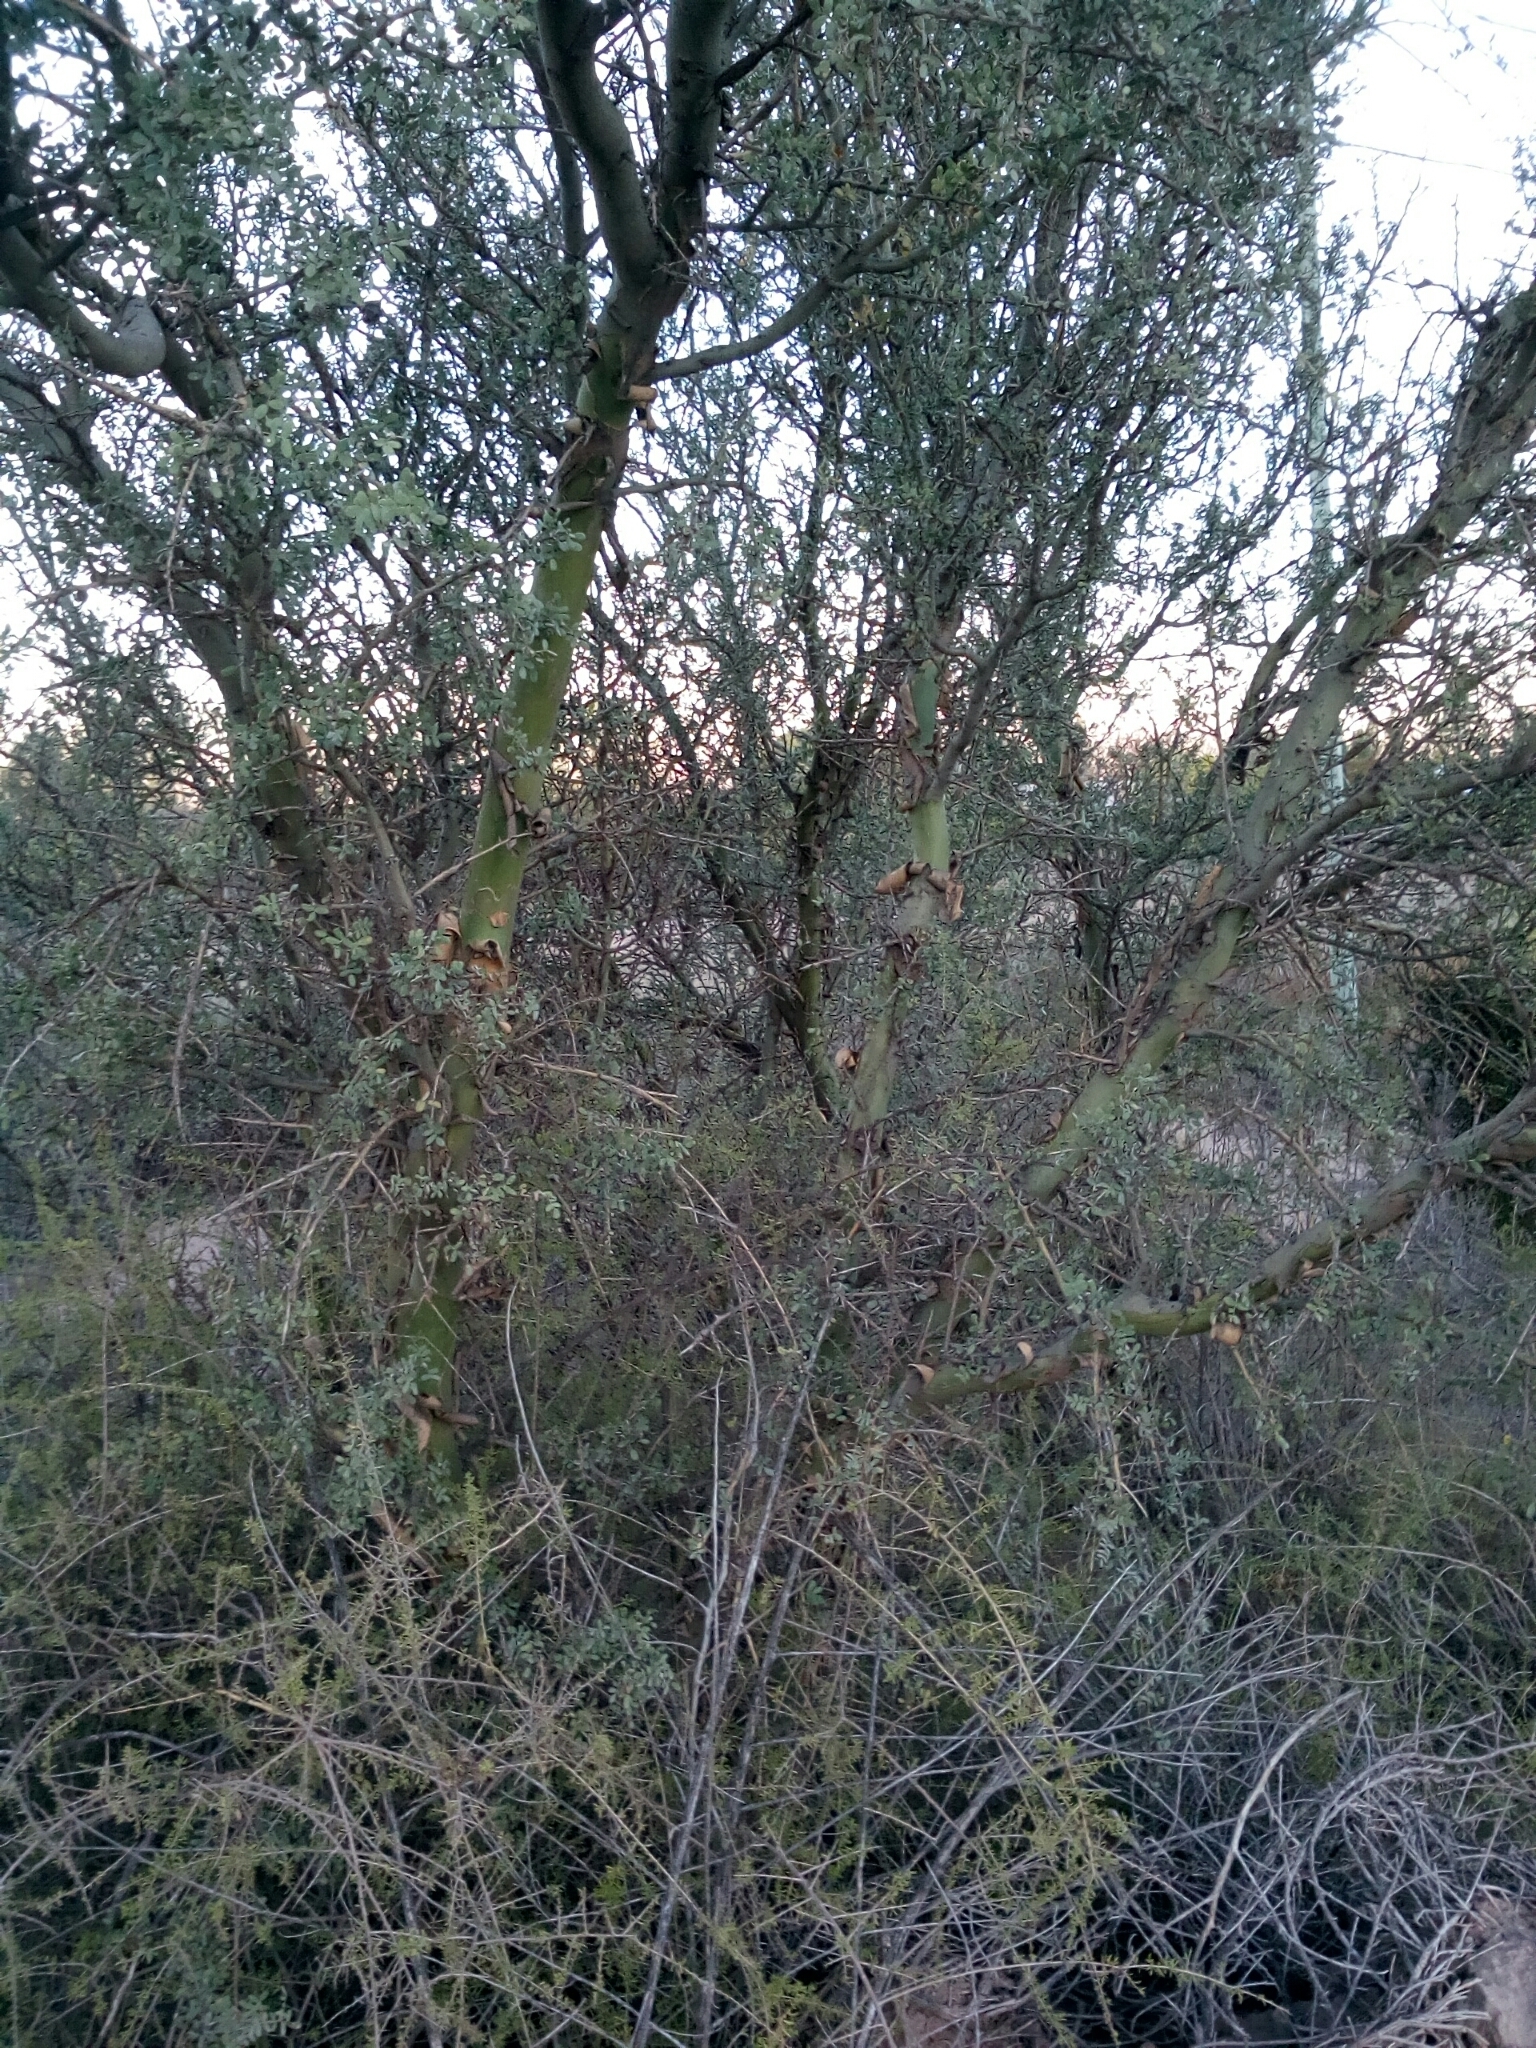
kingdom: Plantae
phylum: Tracheophyta
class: Magnoliopsida
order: Fabales
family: Fabaceae
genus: Geoffroea
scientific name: Geoffroea decorticans
